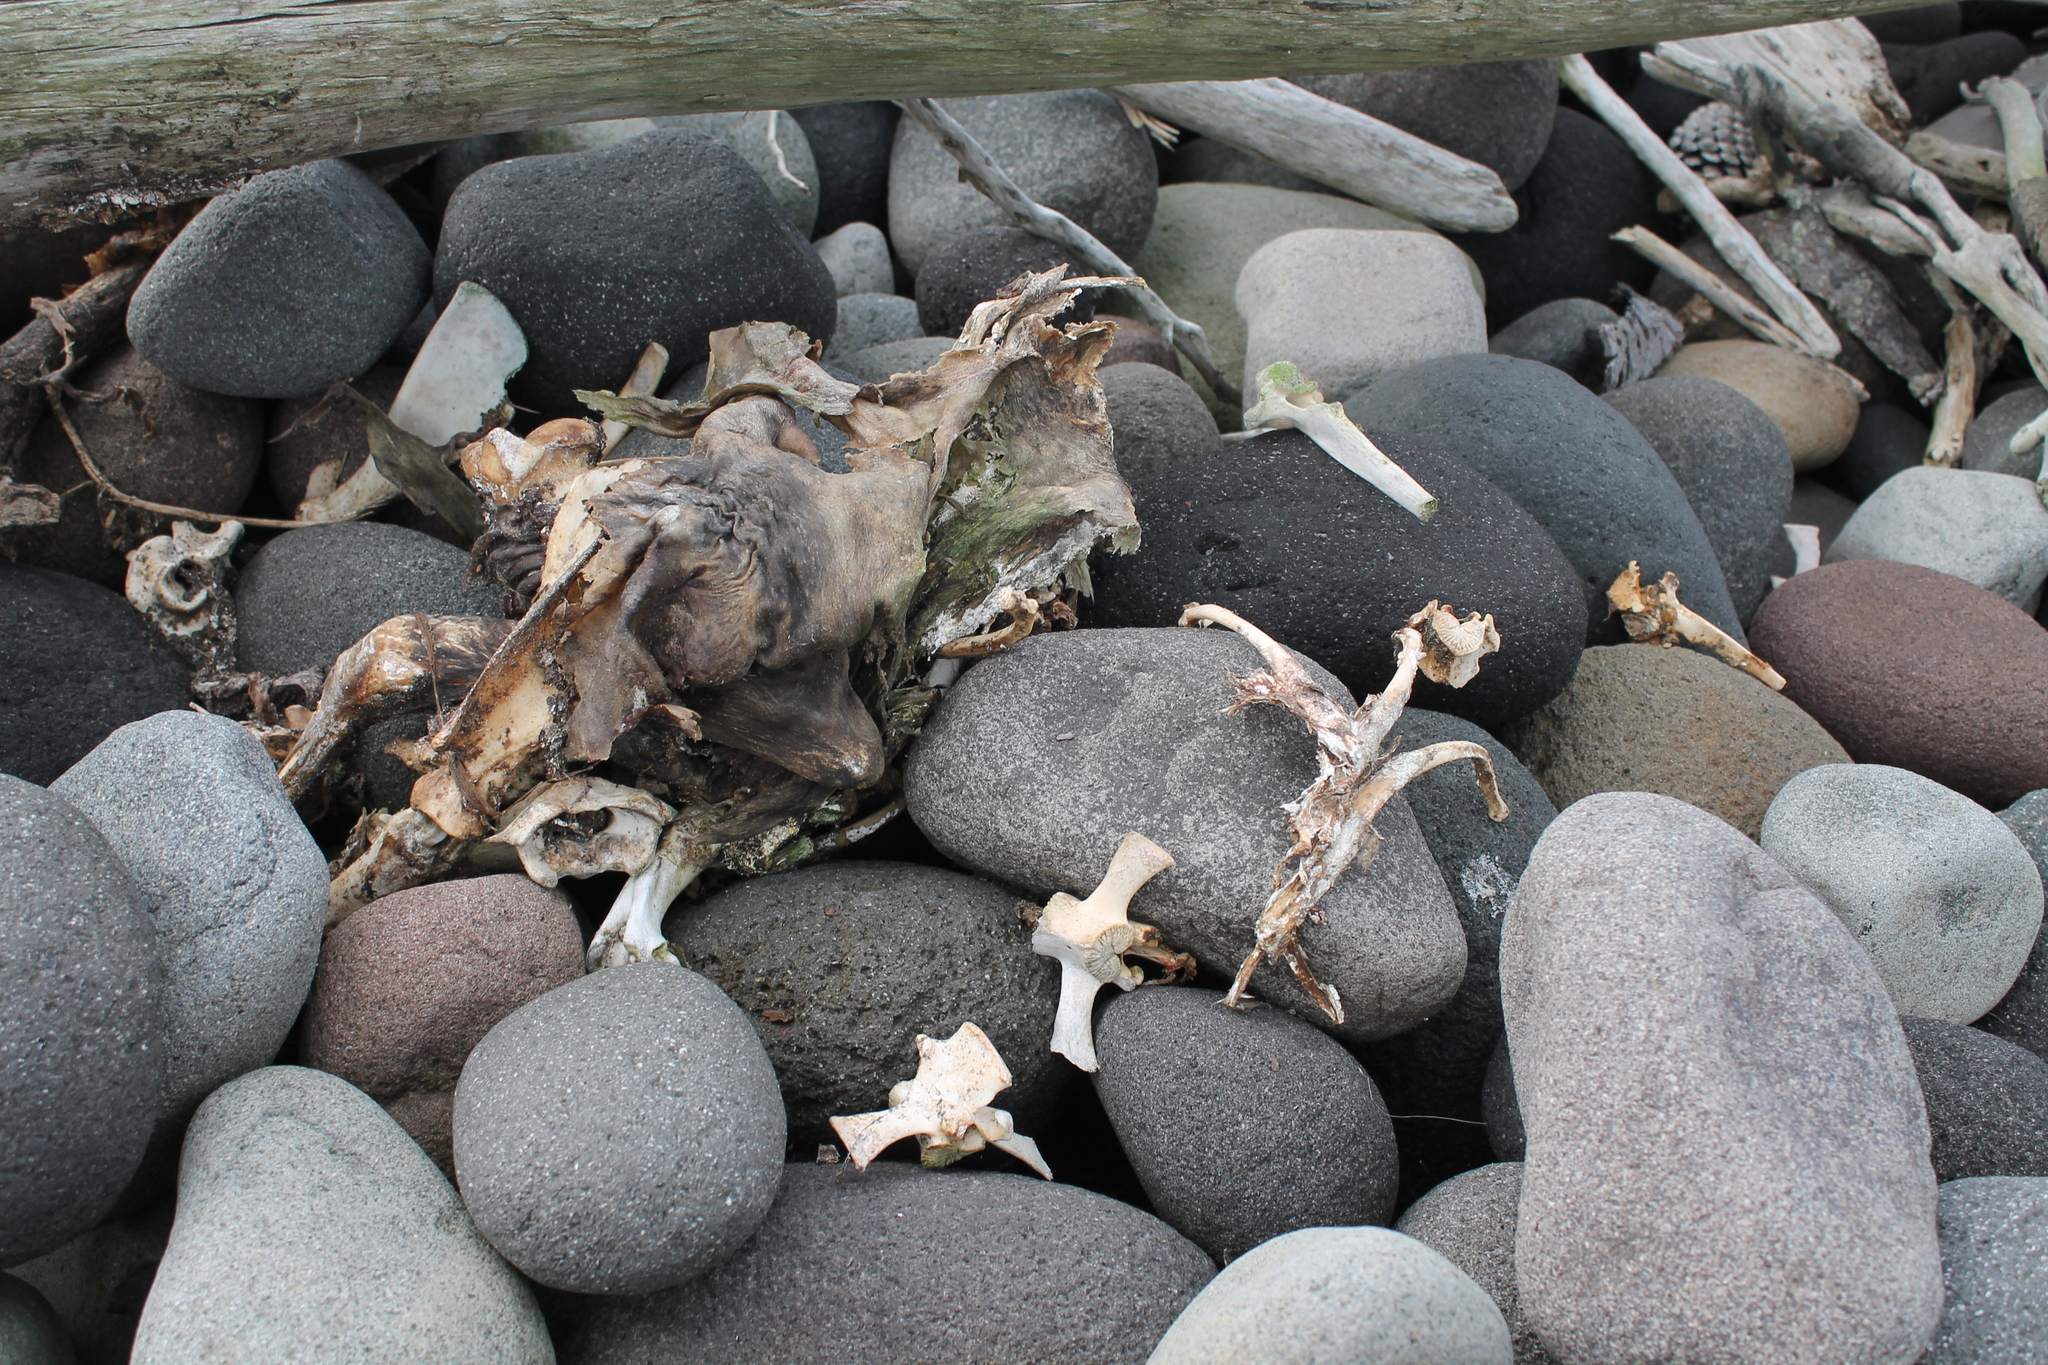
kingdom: Animalia
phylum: Chordata
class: Mammalia
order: Carnivora
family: Otariidae
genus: Arctocephalus
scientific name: Arctocephalus forsteri
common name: New zealand fur seal
